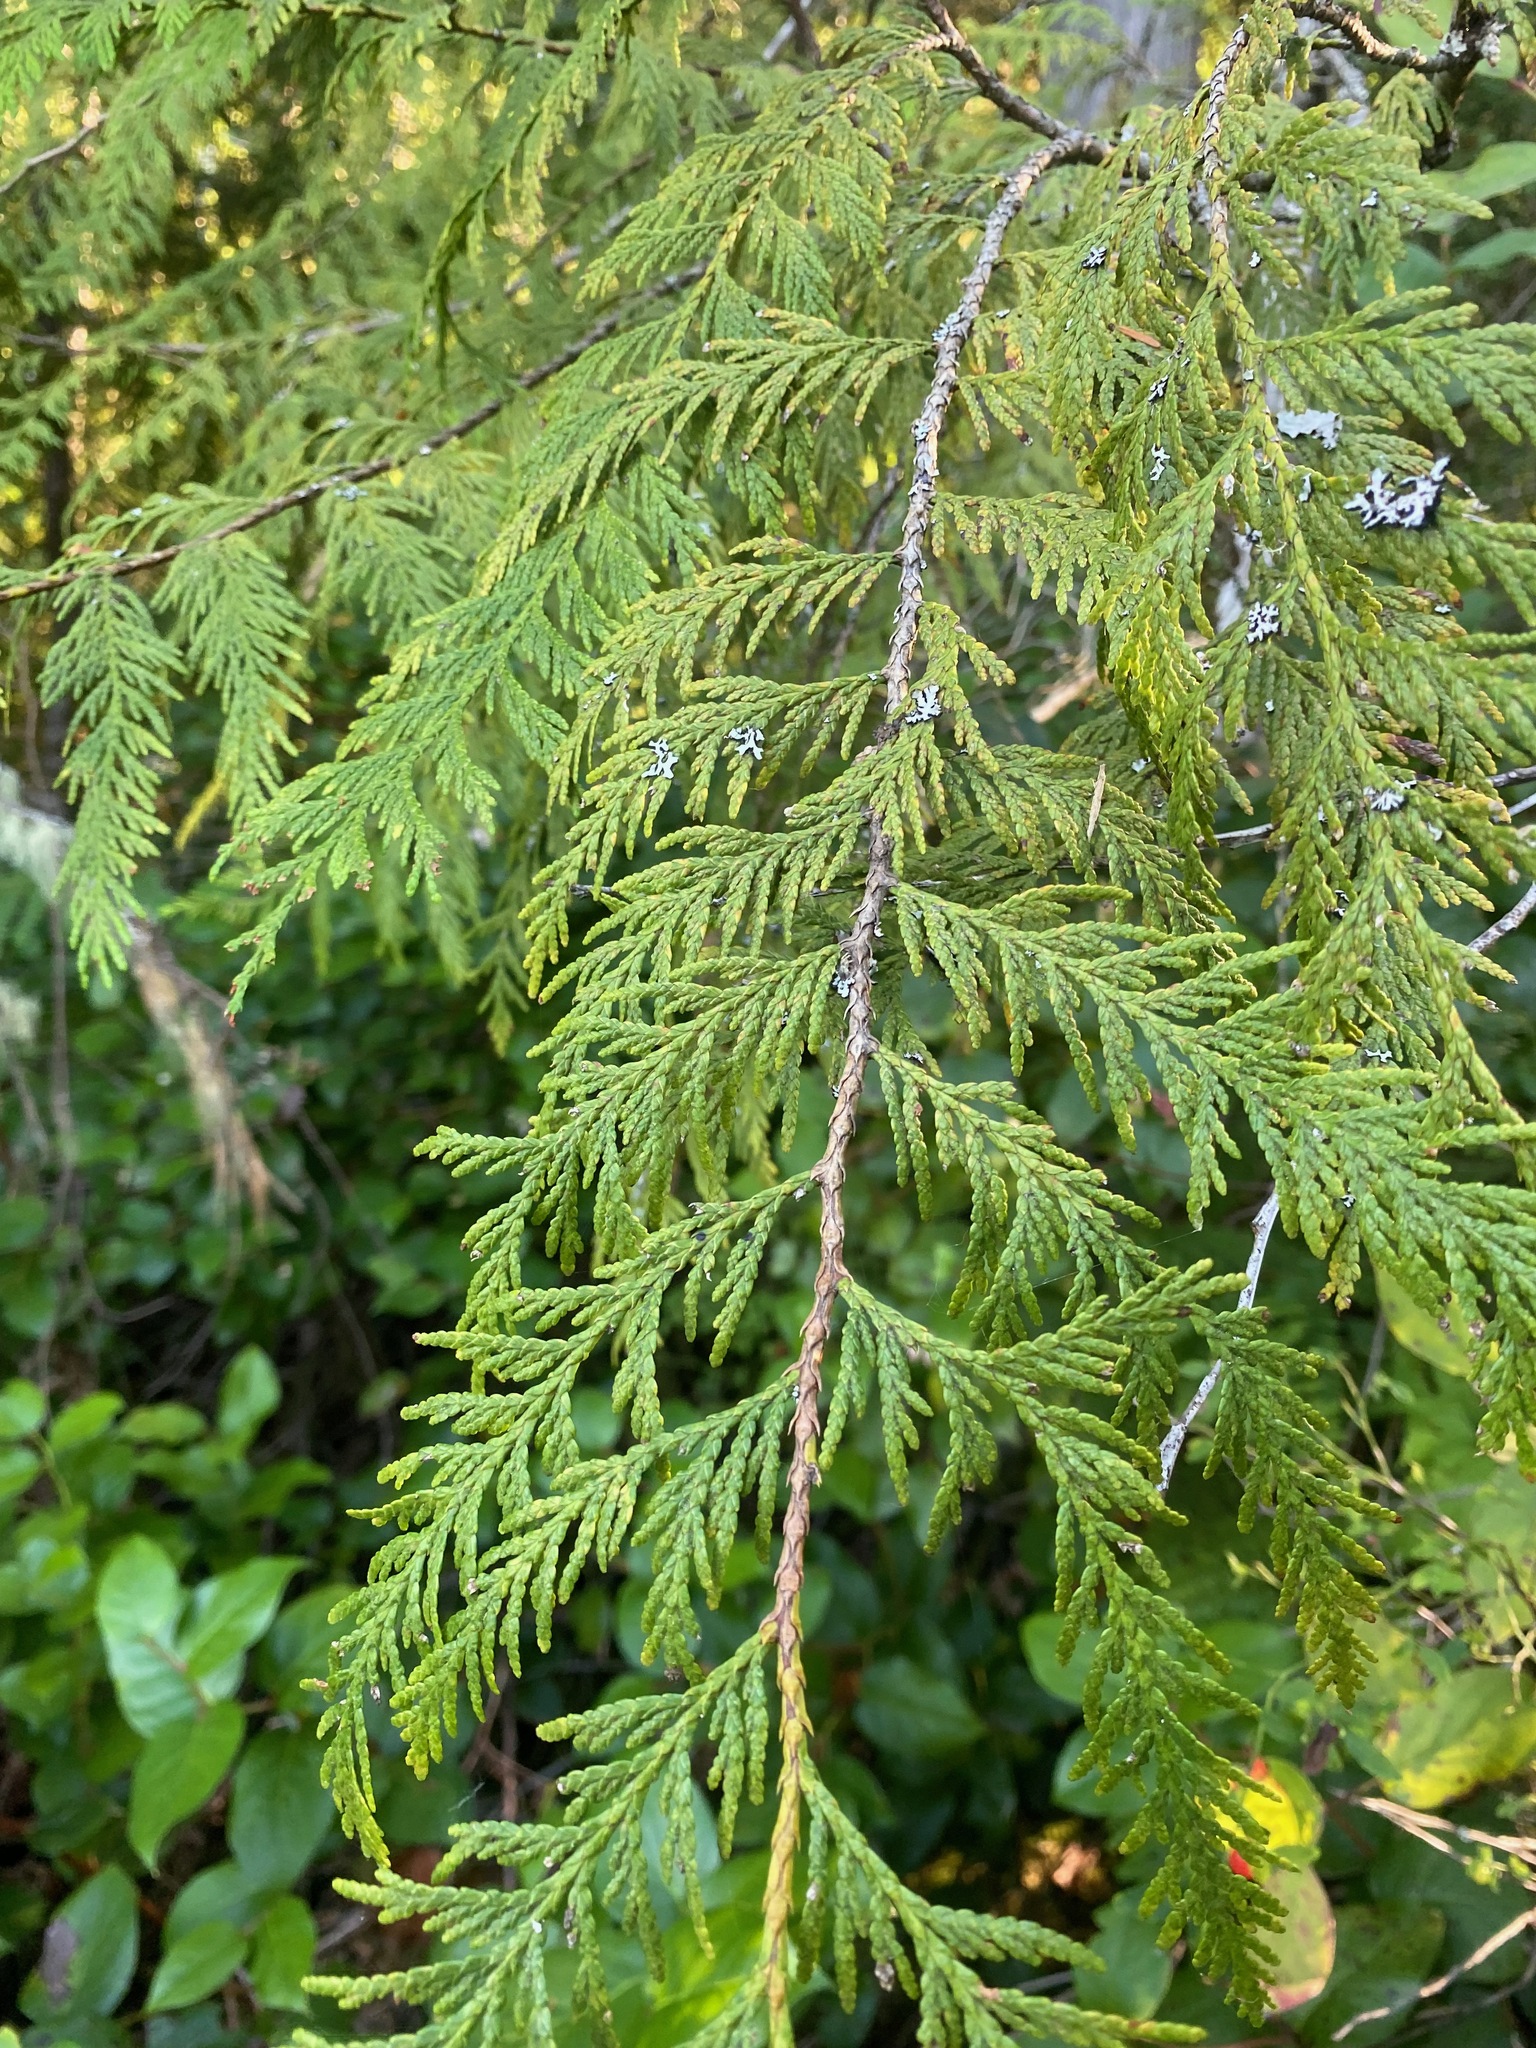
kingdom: Plantae
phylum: Tracheophyta
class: Pinopsida
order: Pinales
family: Cupressaceae
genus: Thuja
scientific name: Thuja plicata
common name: Western red-cedar
